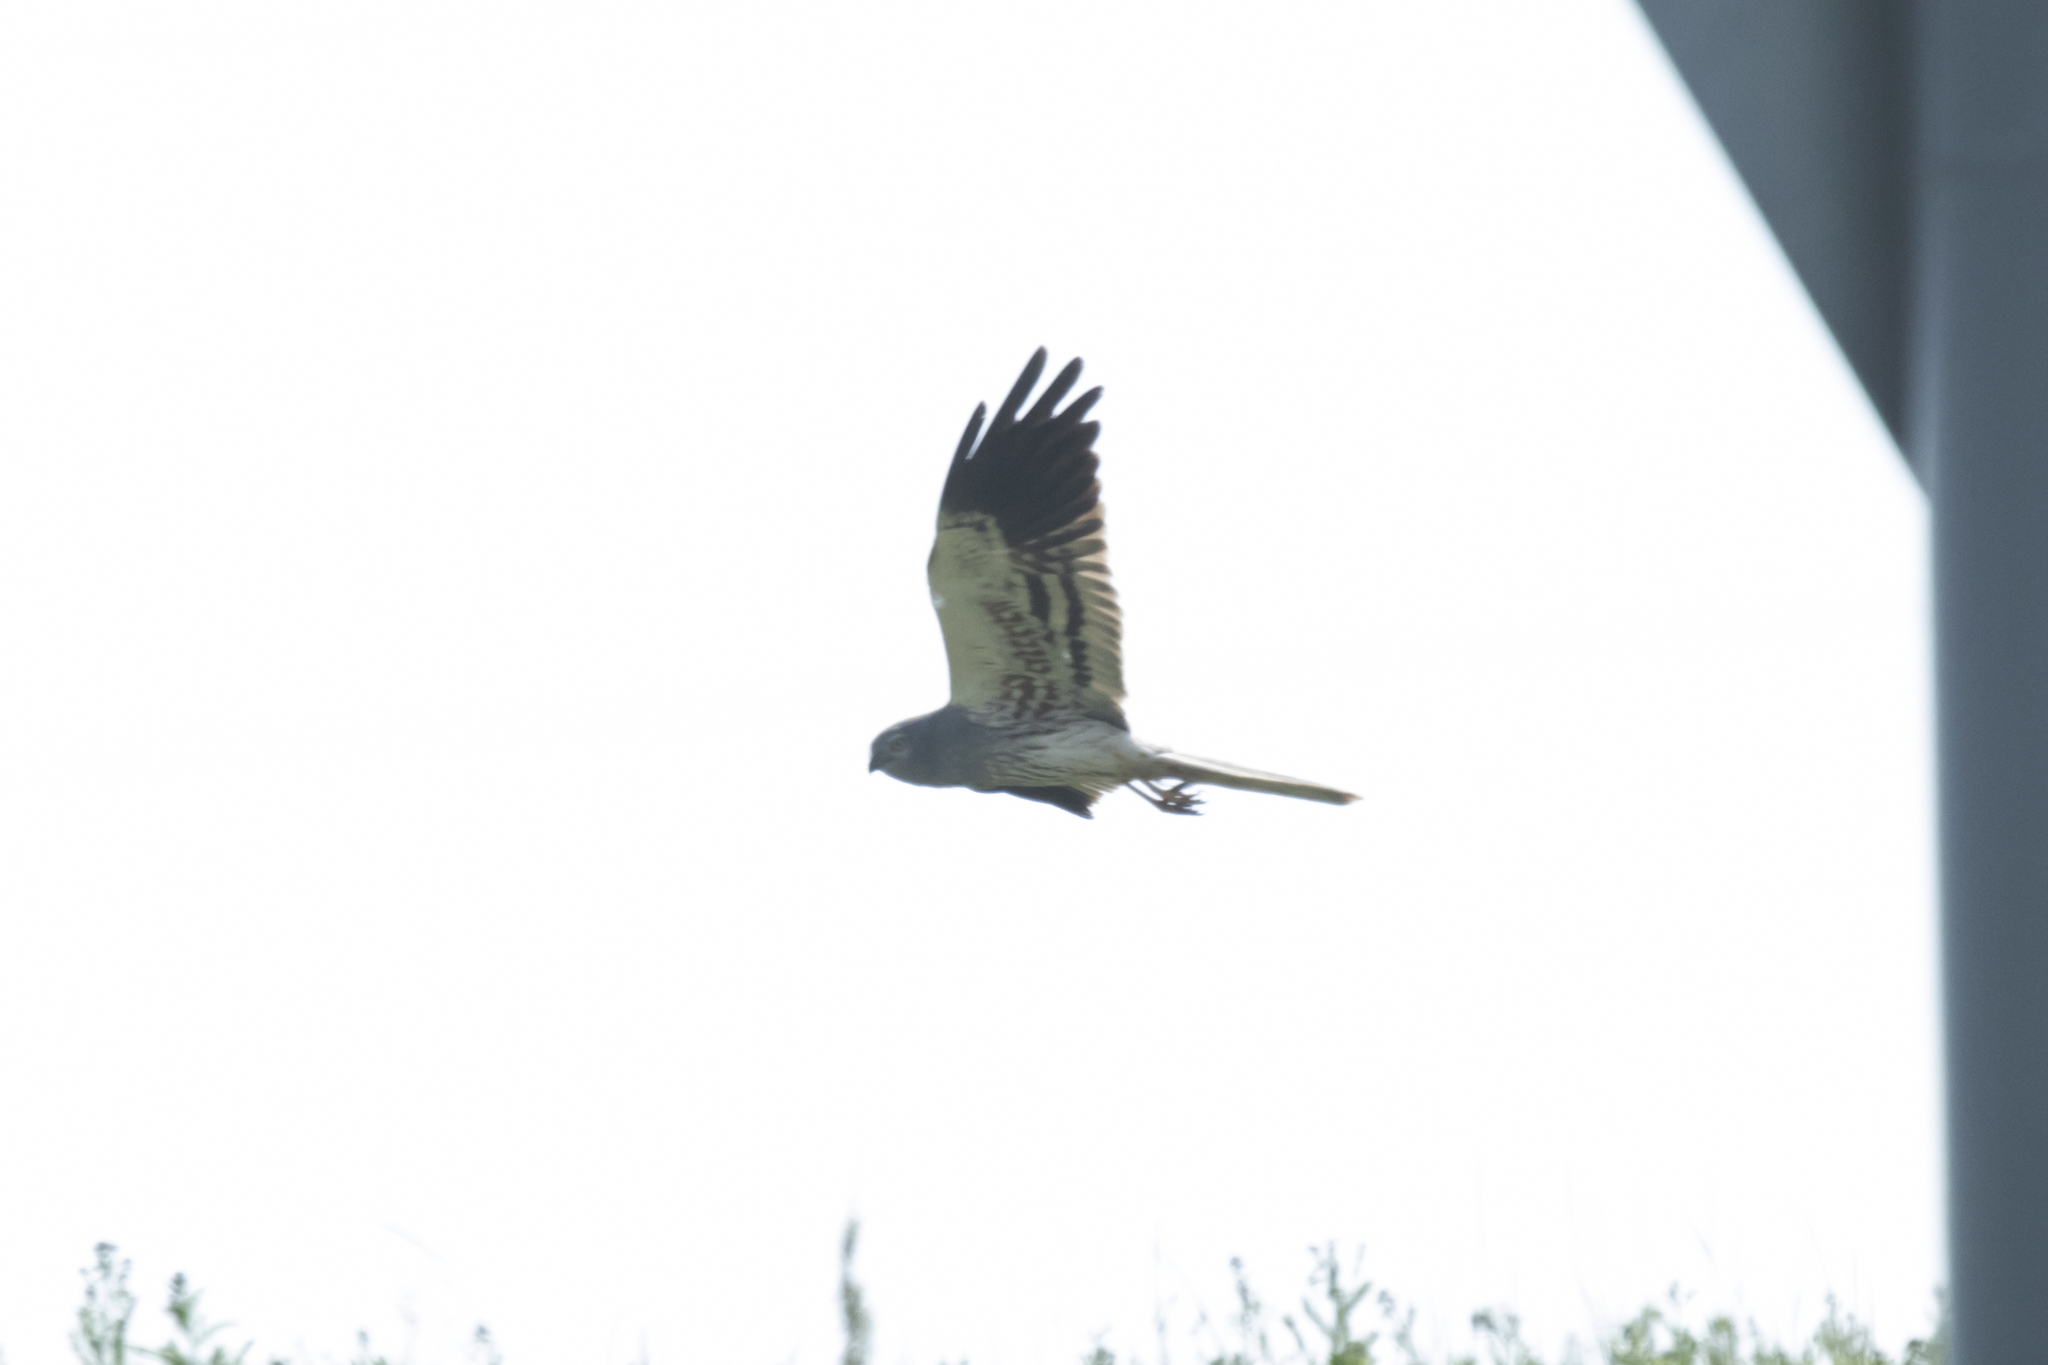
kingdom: Animalia
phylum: Chordata
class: Aves
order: Accipitriformes
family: Accipitridae
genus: Circus
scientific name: Circus pygargus
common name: Montagu's harrier
